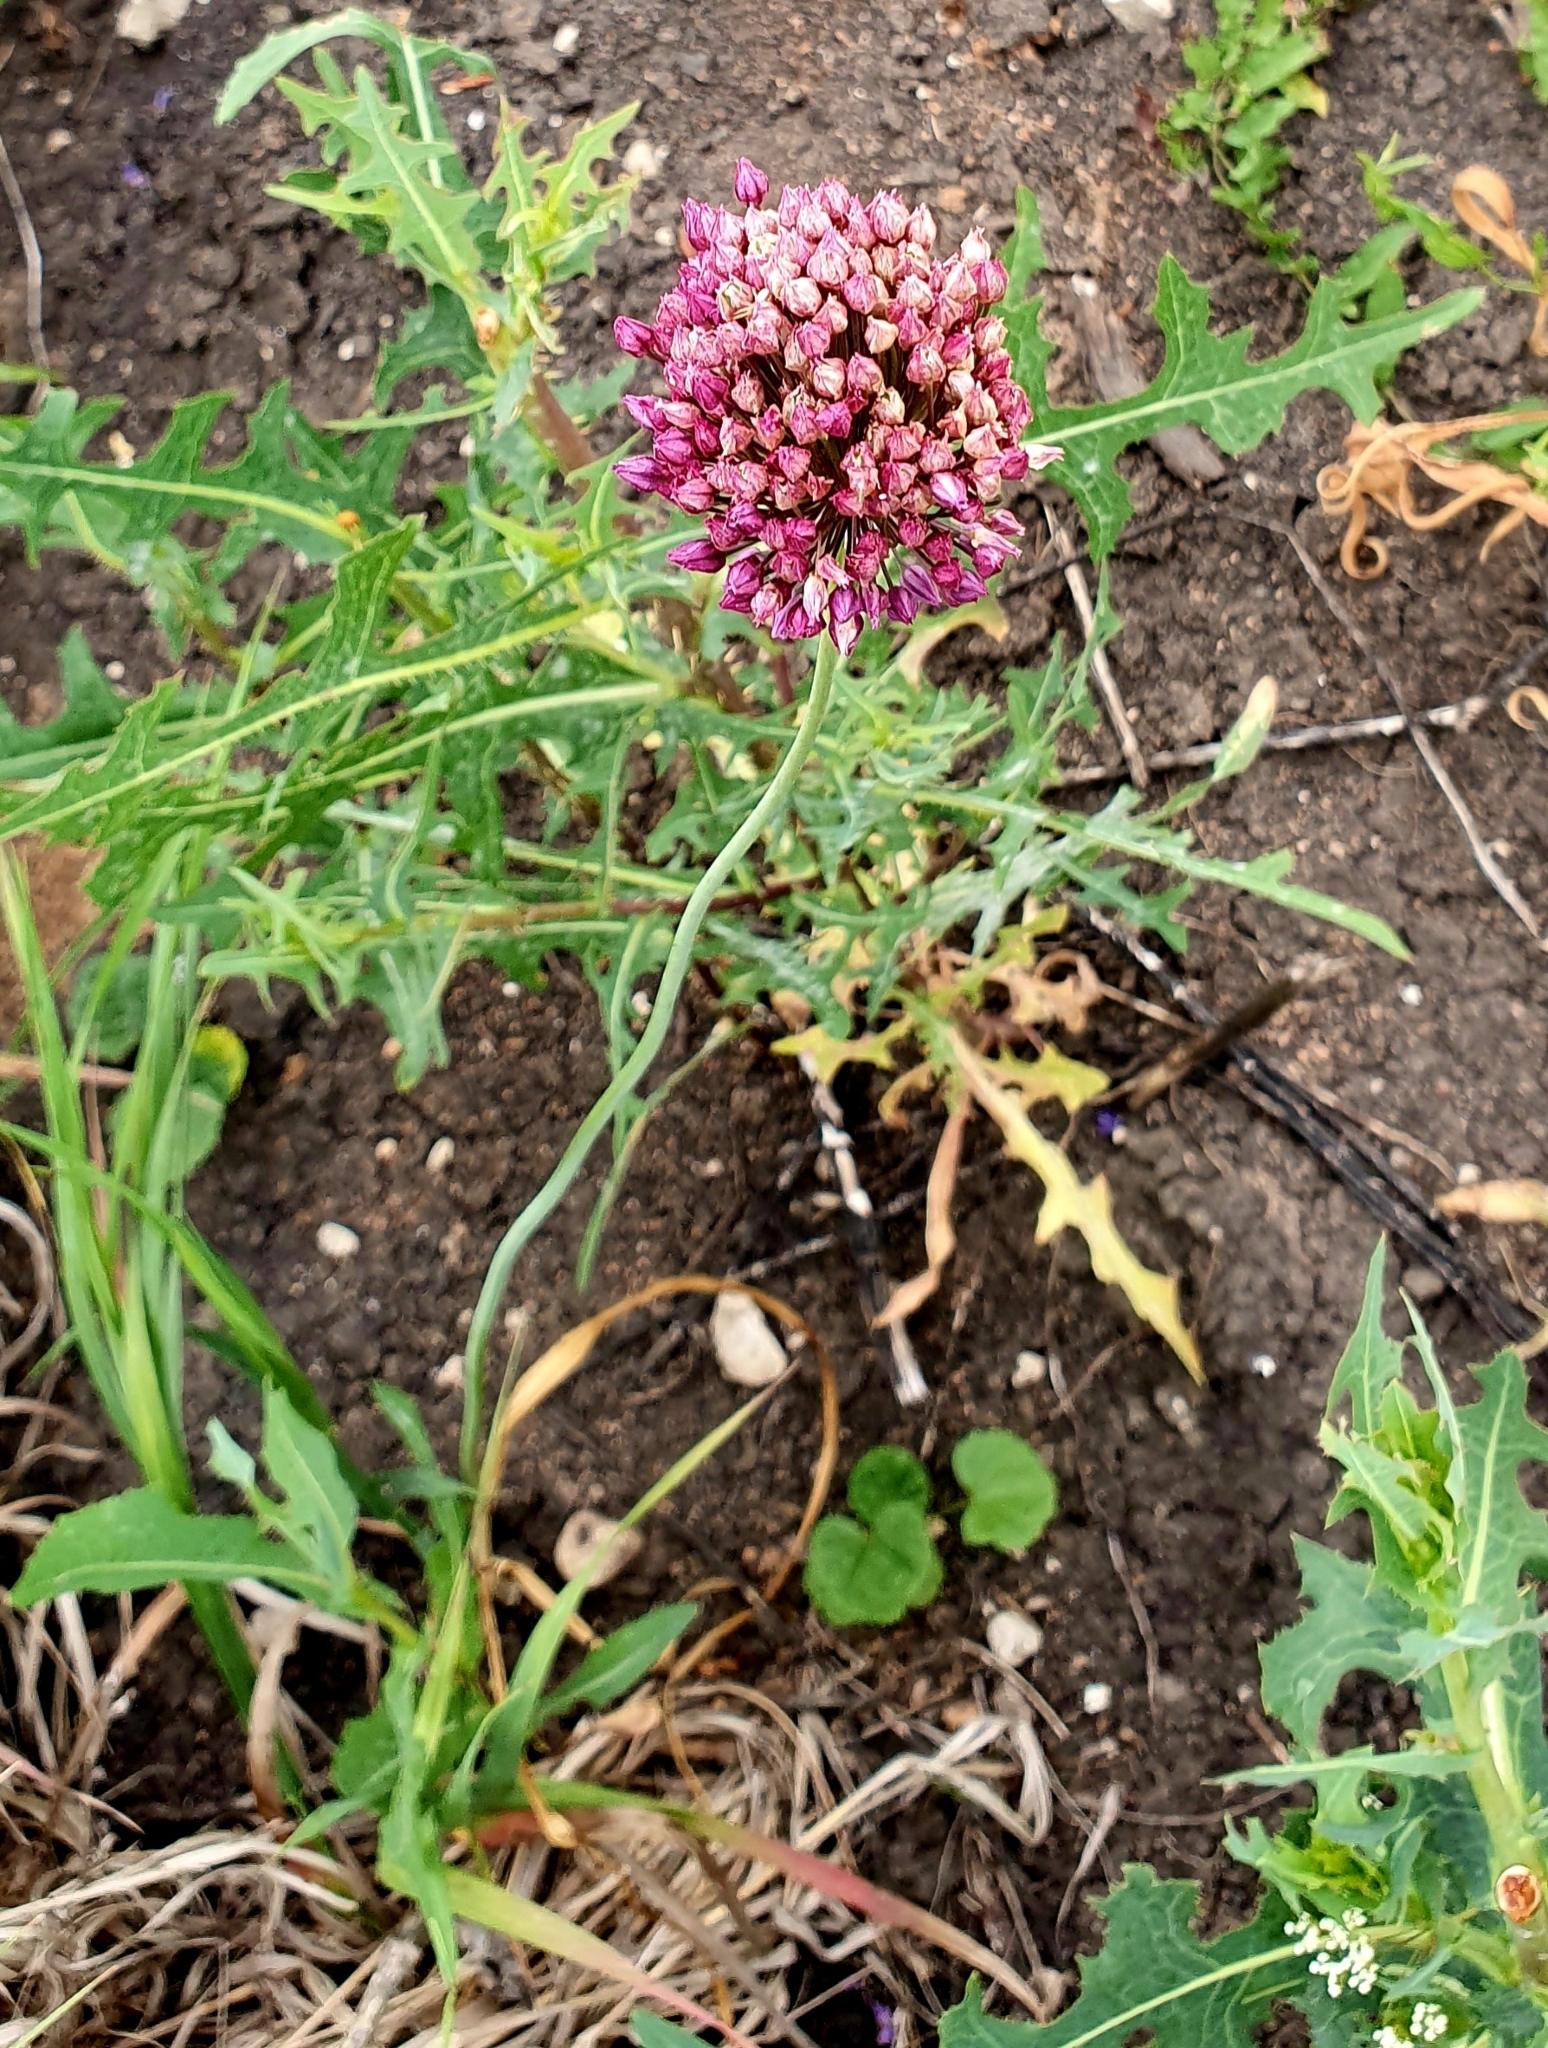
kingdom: Plantae
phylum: Tracheophyta
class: Liliopsida
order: Asparagales
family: Amaryllidaceae
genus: Allium
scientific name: Allium rotundum
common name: Sand leek
